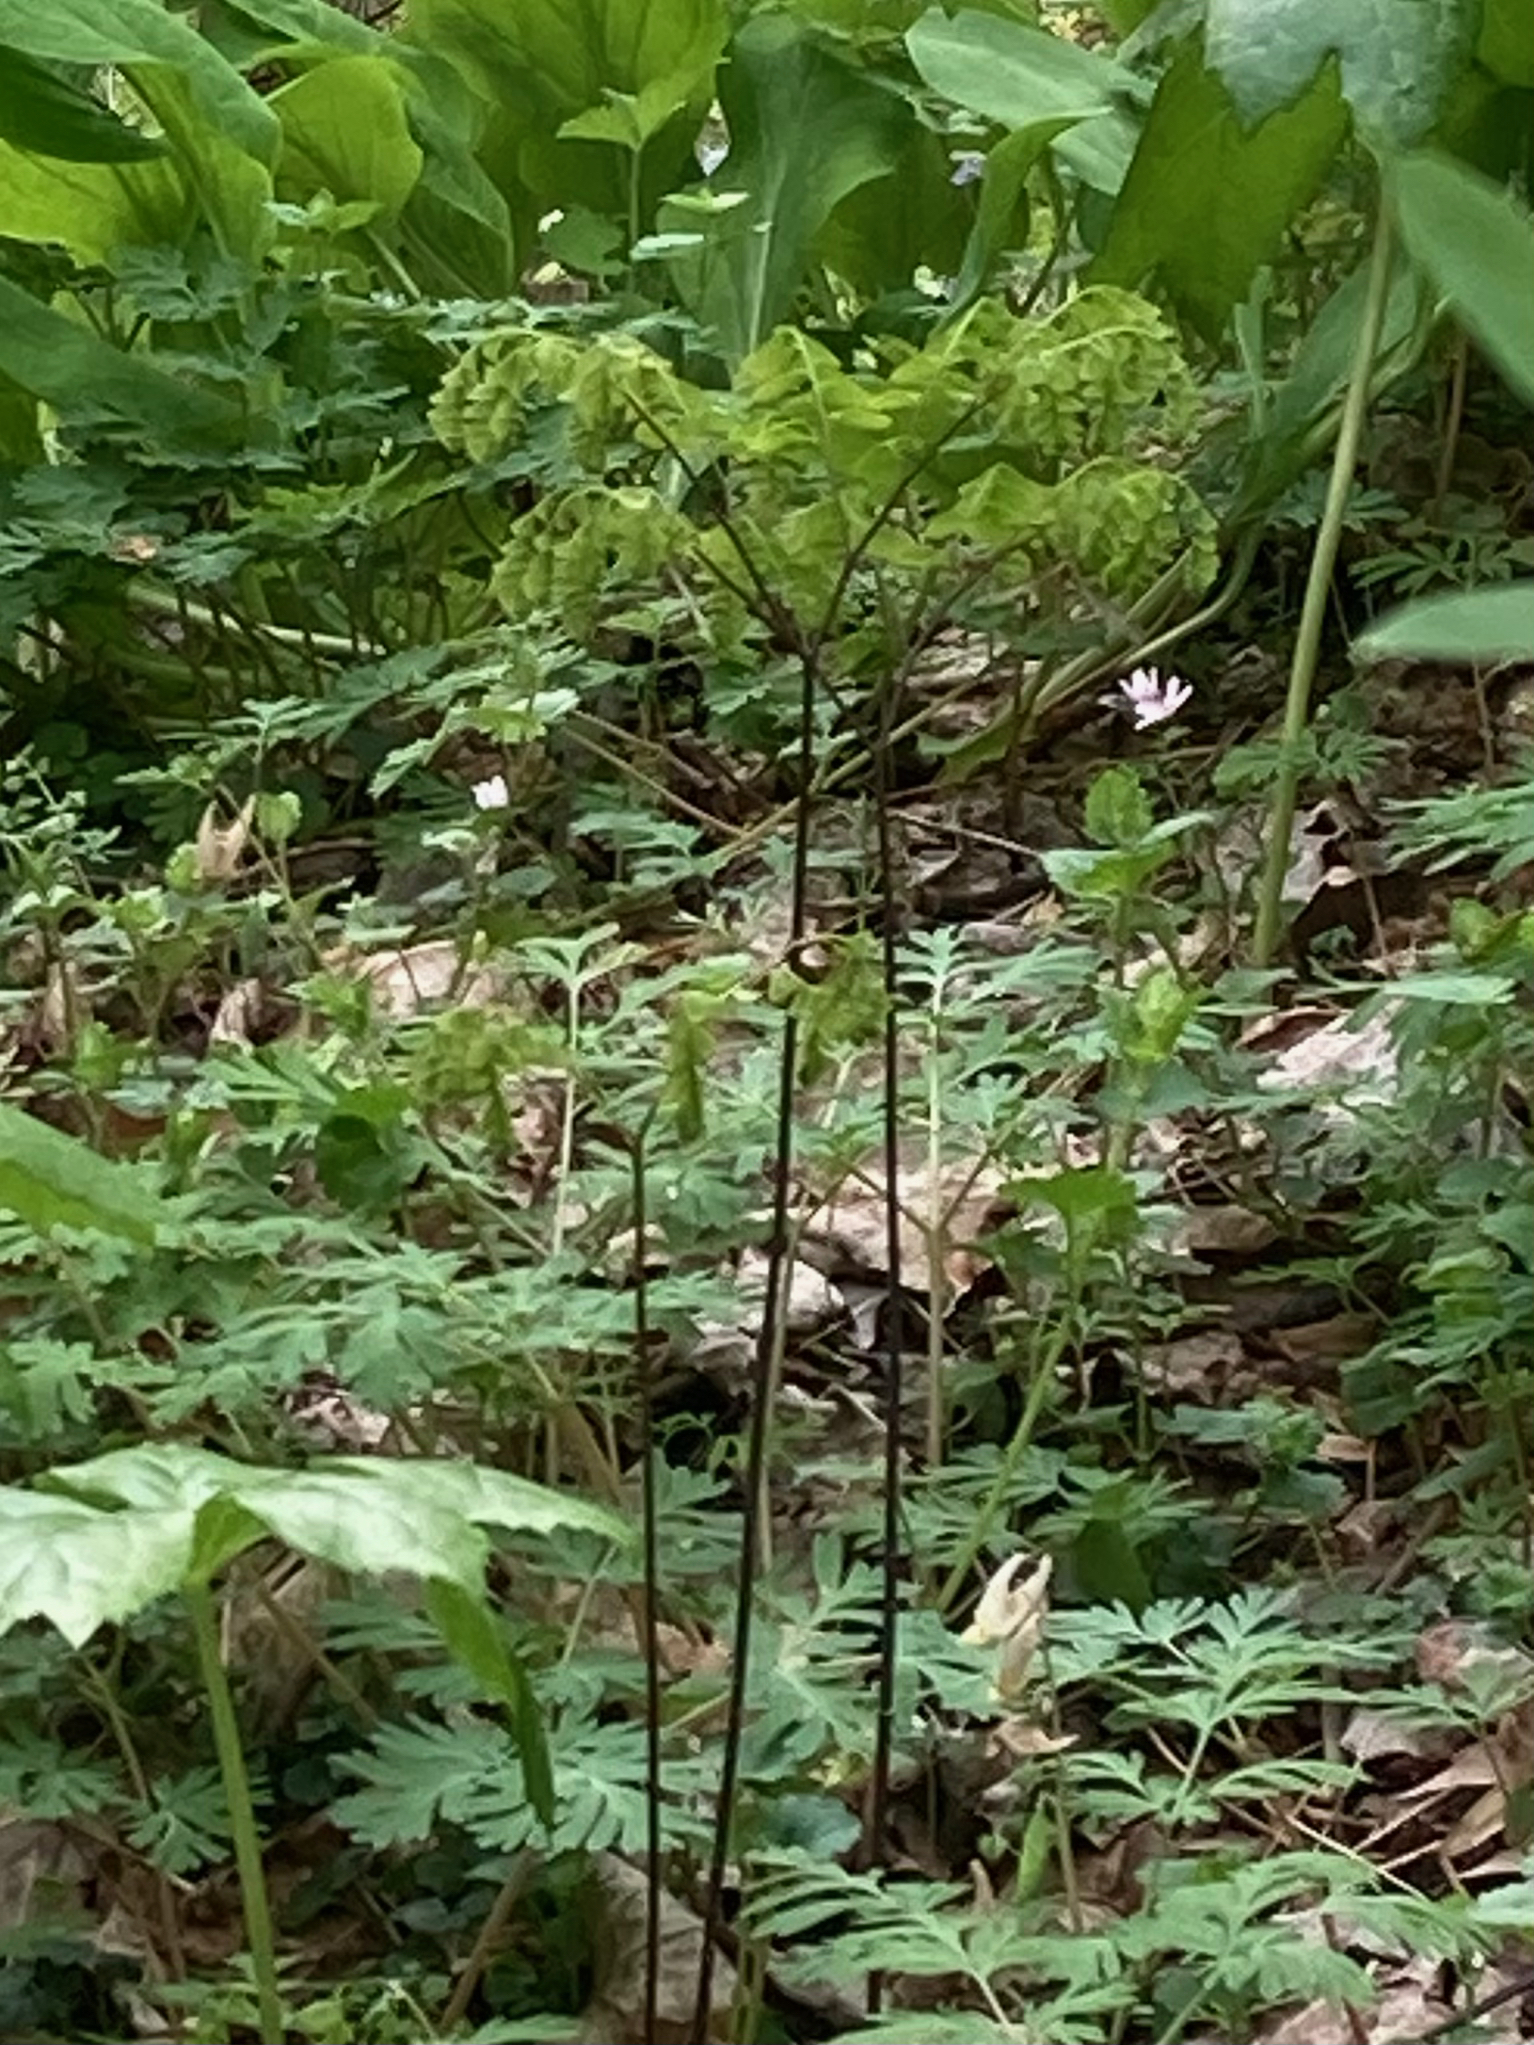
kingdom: Plantae
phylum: Tracheophyta
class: Polypodiopsida
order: Polypodiales
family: Pteridaceae
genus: Adiantum
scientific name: Adiantum pedatum
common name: Five-finger fern
